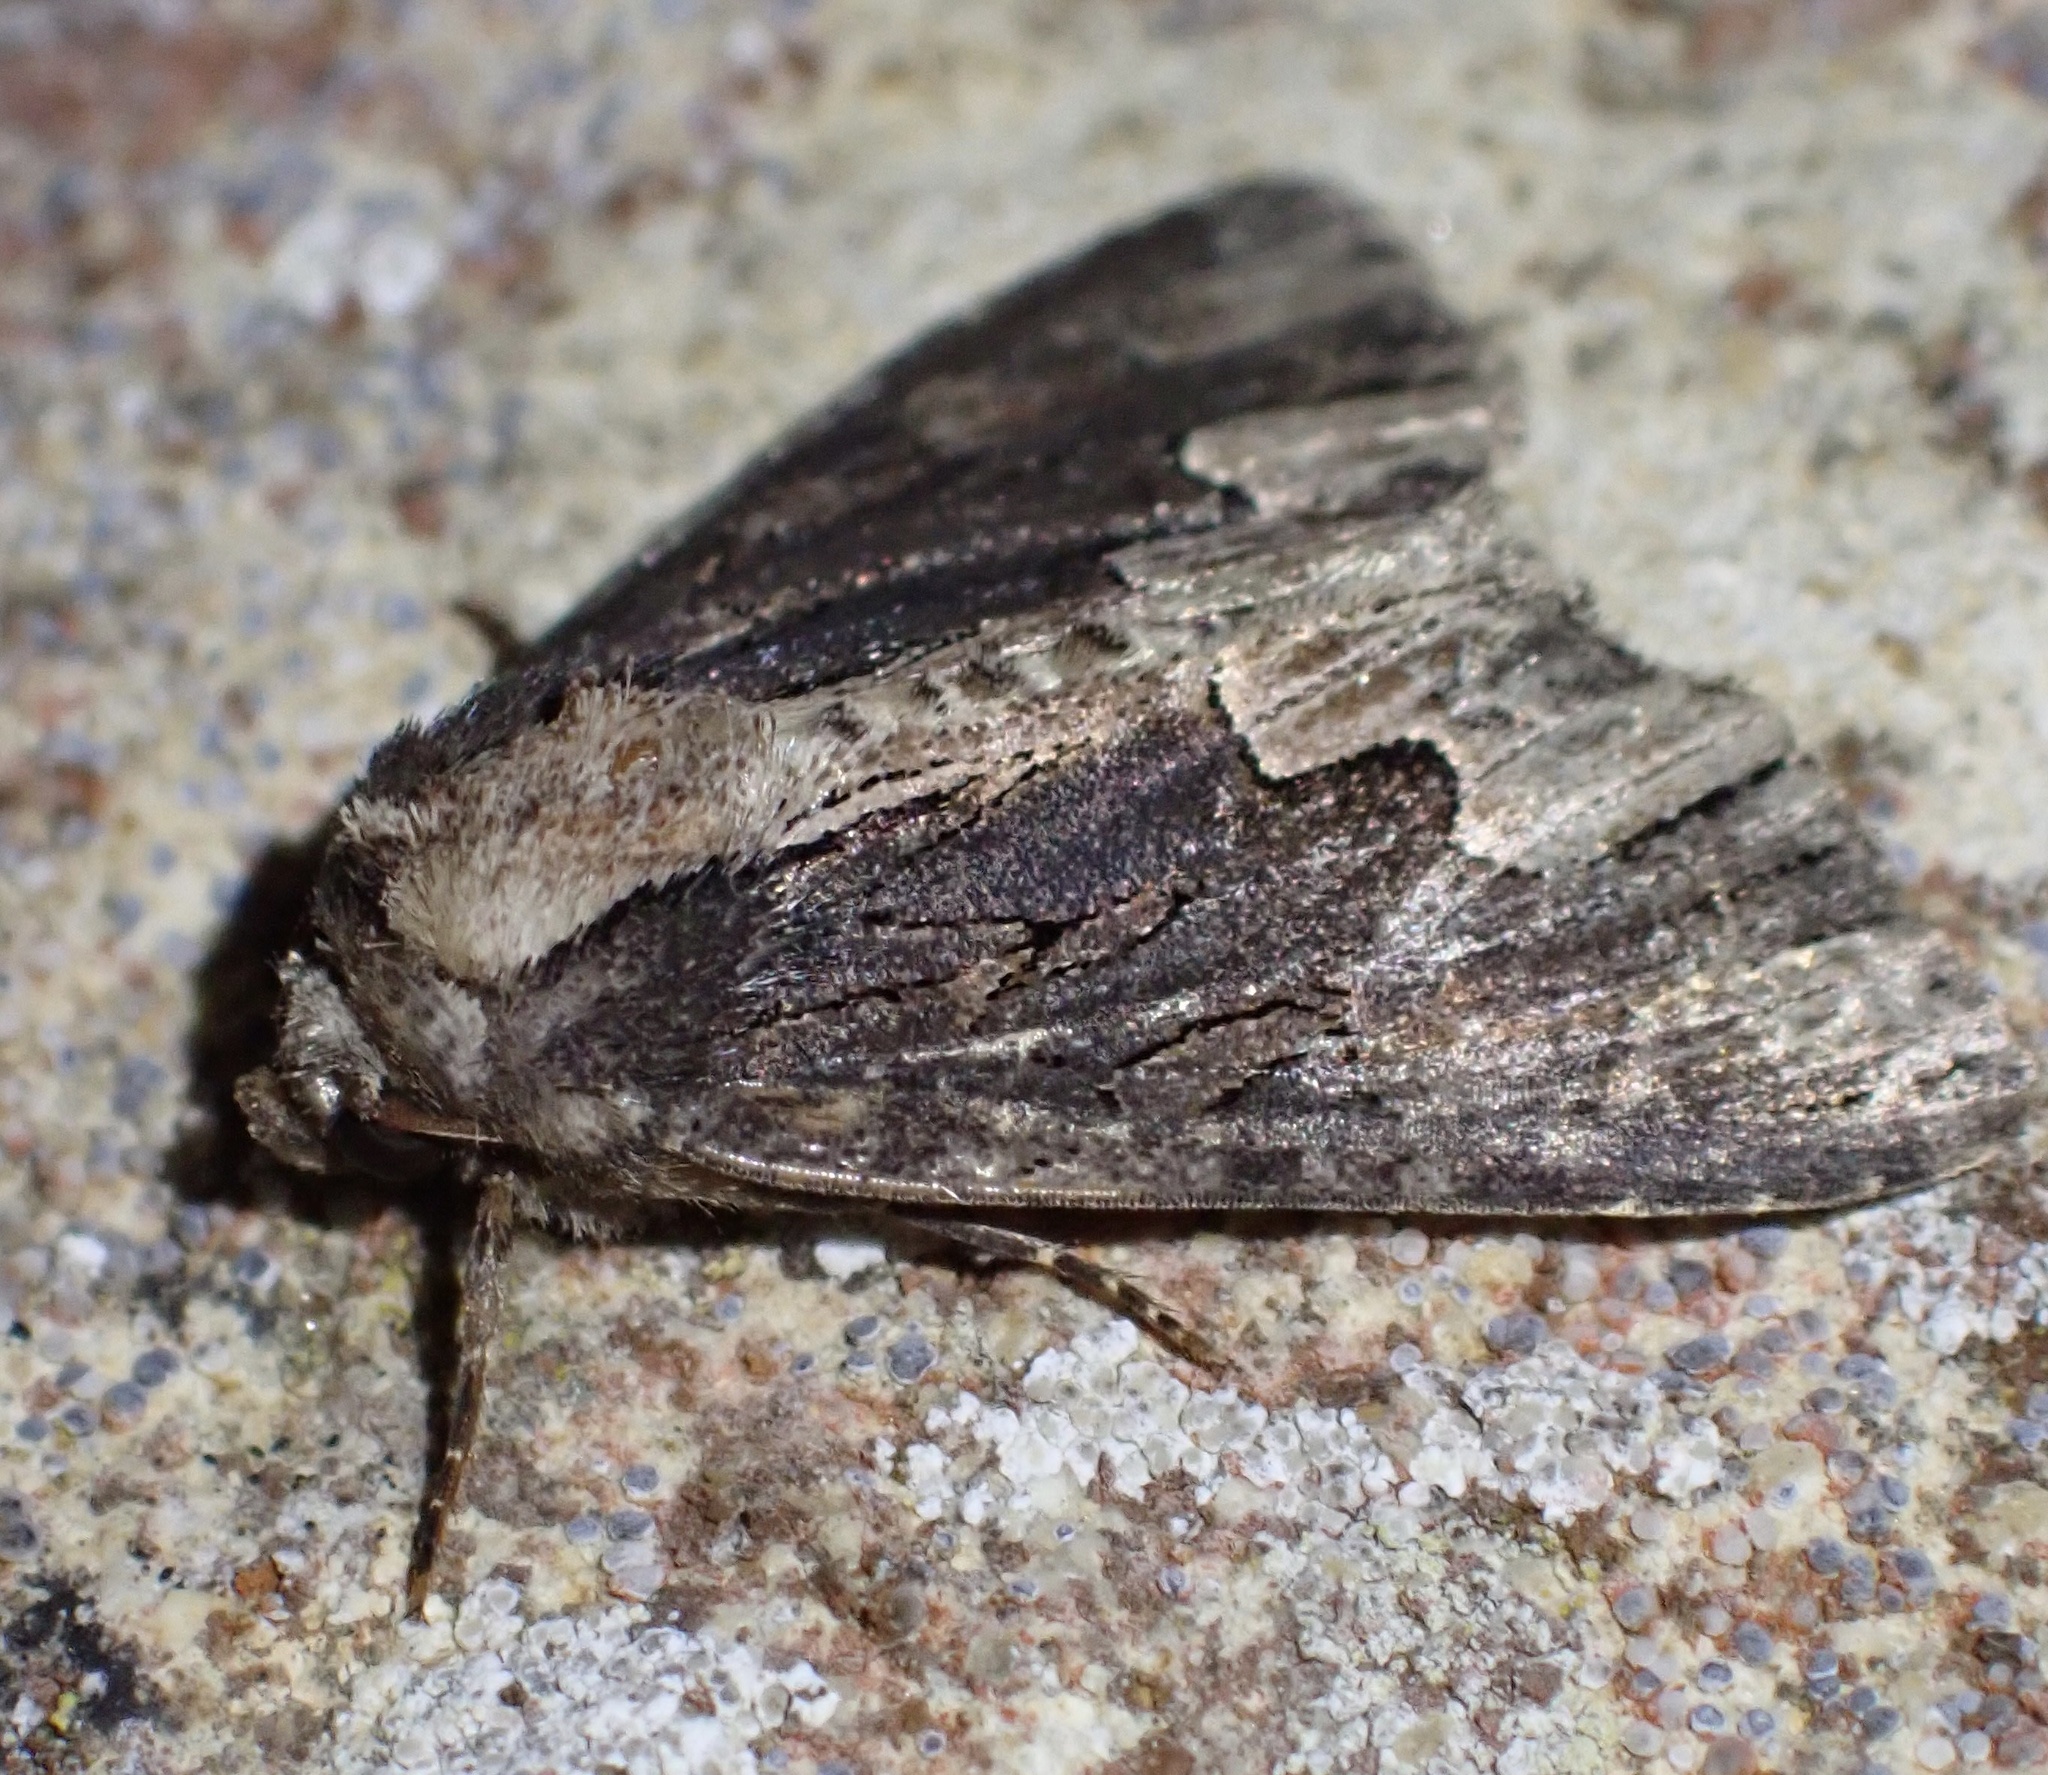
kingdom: Animalia
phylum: Arthropoda
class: Insecta
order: Lepidoptera
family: Noctuidae
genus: Dypterygia
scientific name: Dypterygia scabriuscula
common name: Bird's wing
